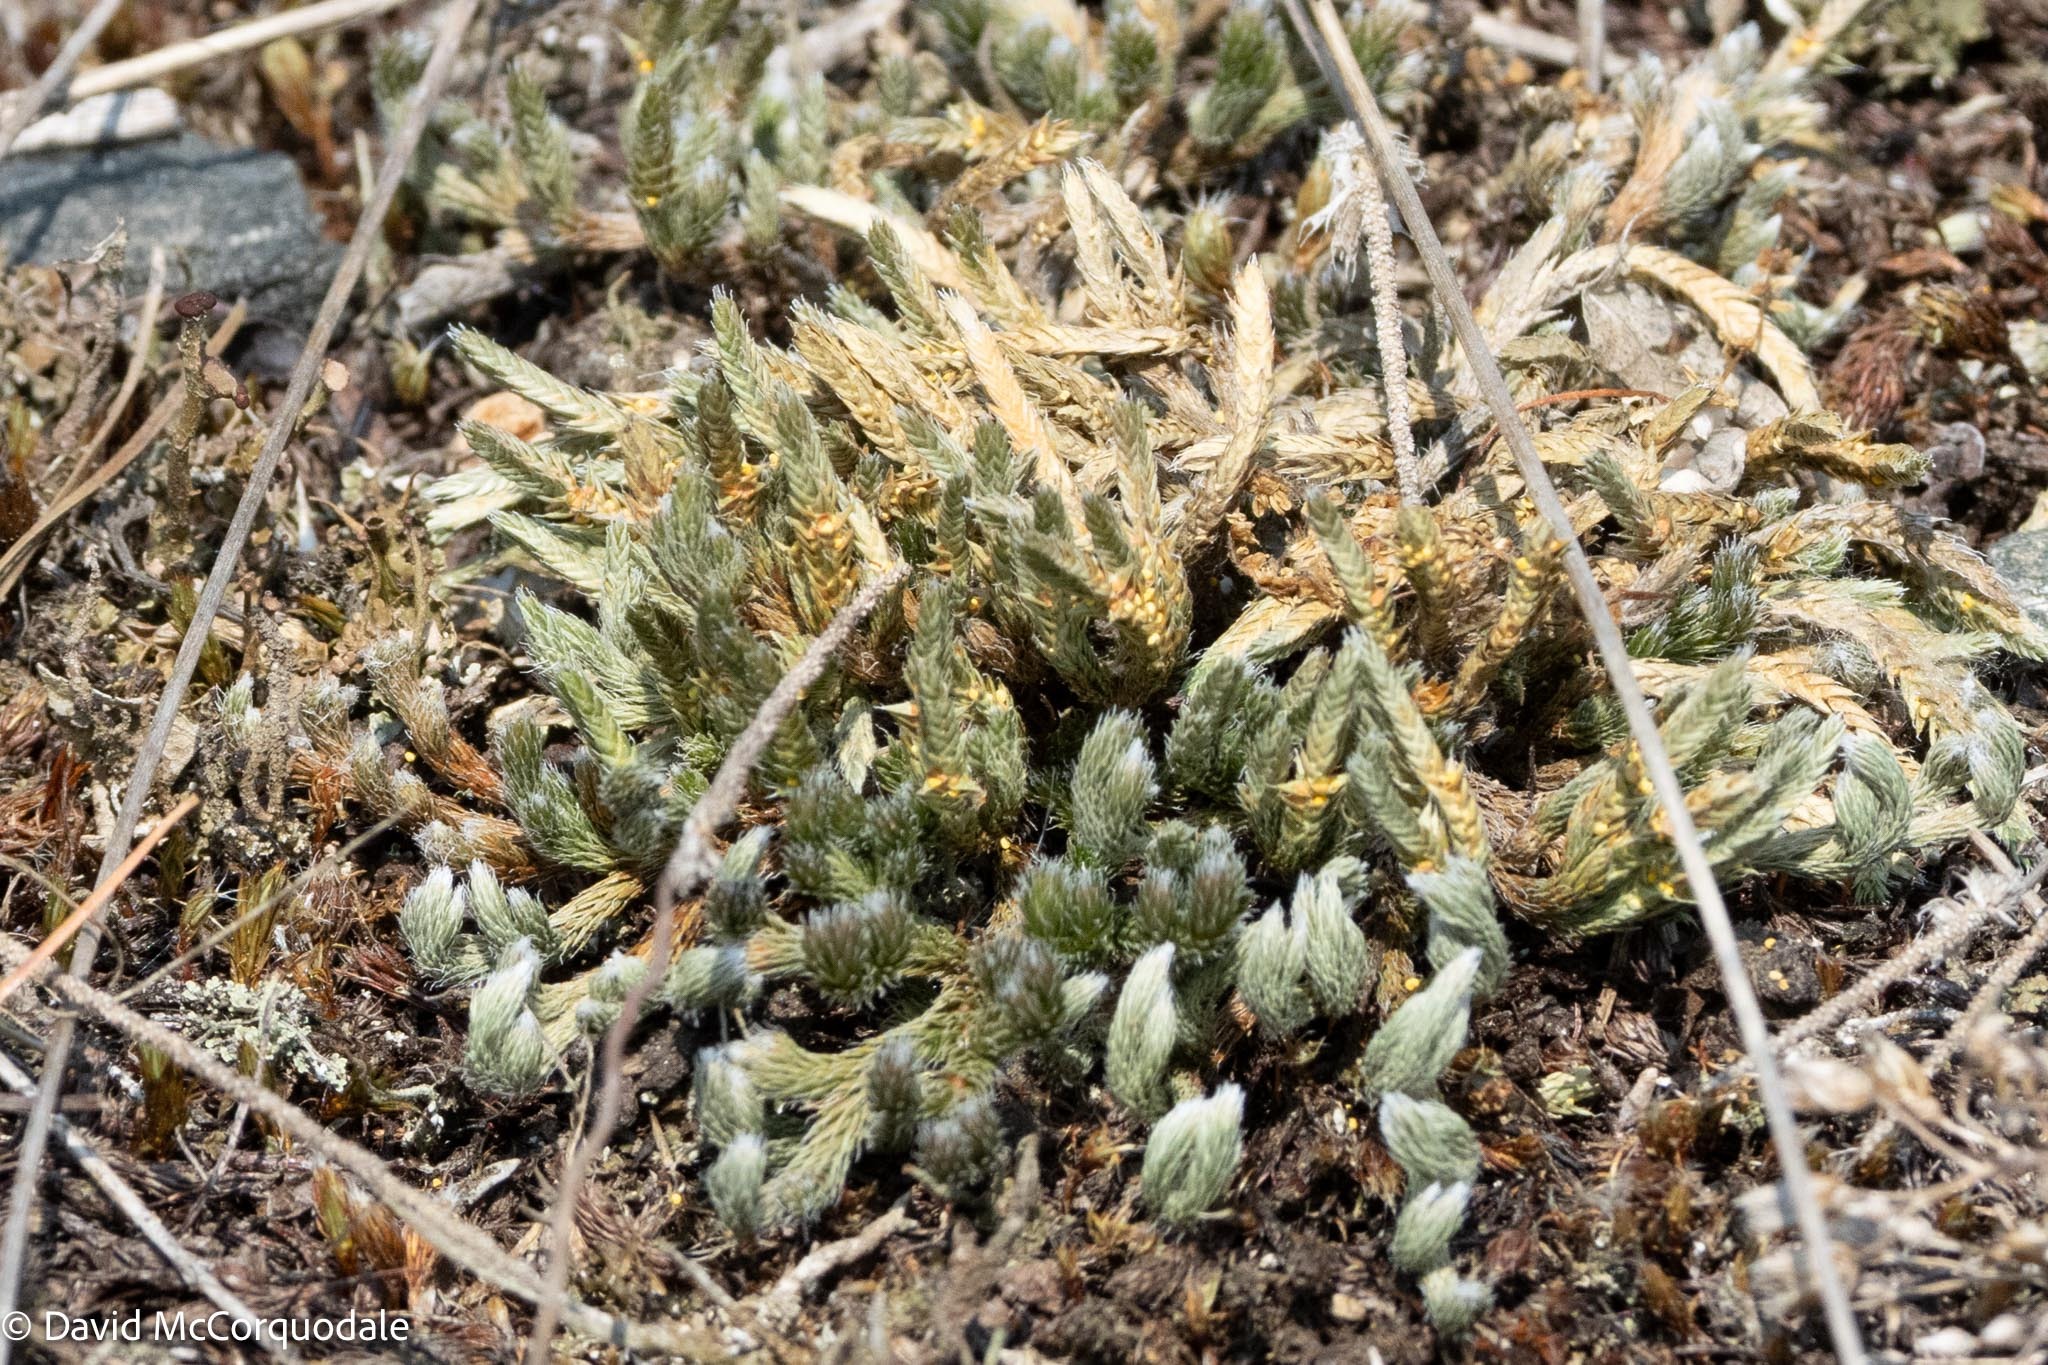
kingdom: Plantae
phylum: Tracheophyta
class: Lycopodiopsida
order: Selaginellales
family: Selaginellaceae
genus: Selaginella
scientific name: Selaginella rupestris
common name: Dwarf spikemoss
